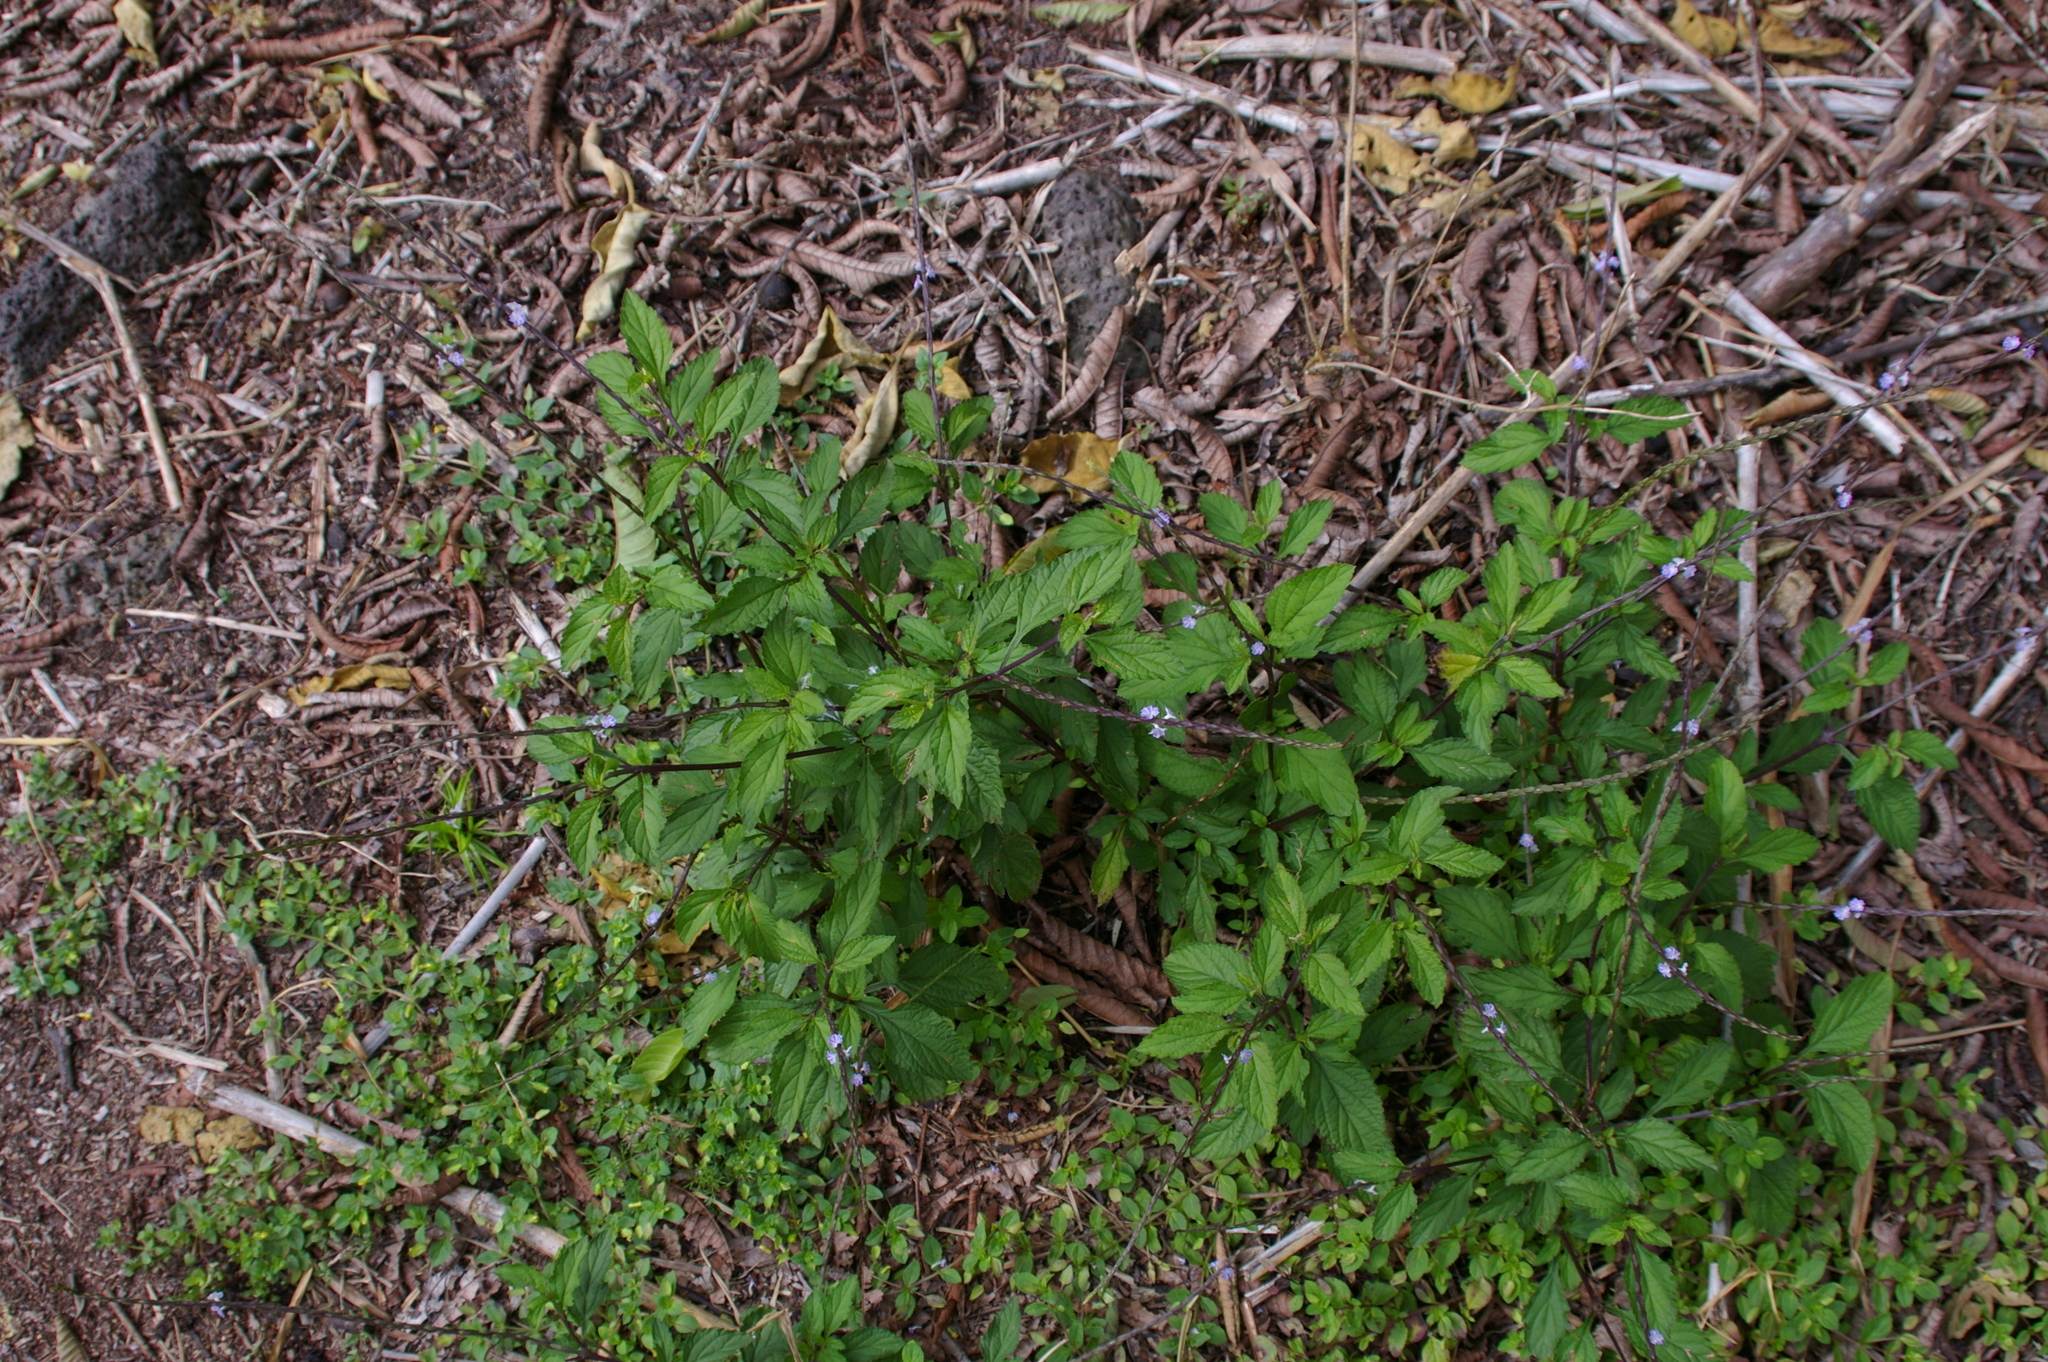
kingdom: Plantae
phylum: Tracheophyta
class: Magnoliopsida
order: Lamiales
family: Verbenaceae
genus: Stachytarpheta
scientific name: Stachytarpheta cayennensis
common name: Cayenne porterweed
